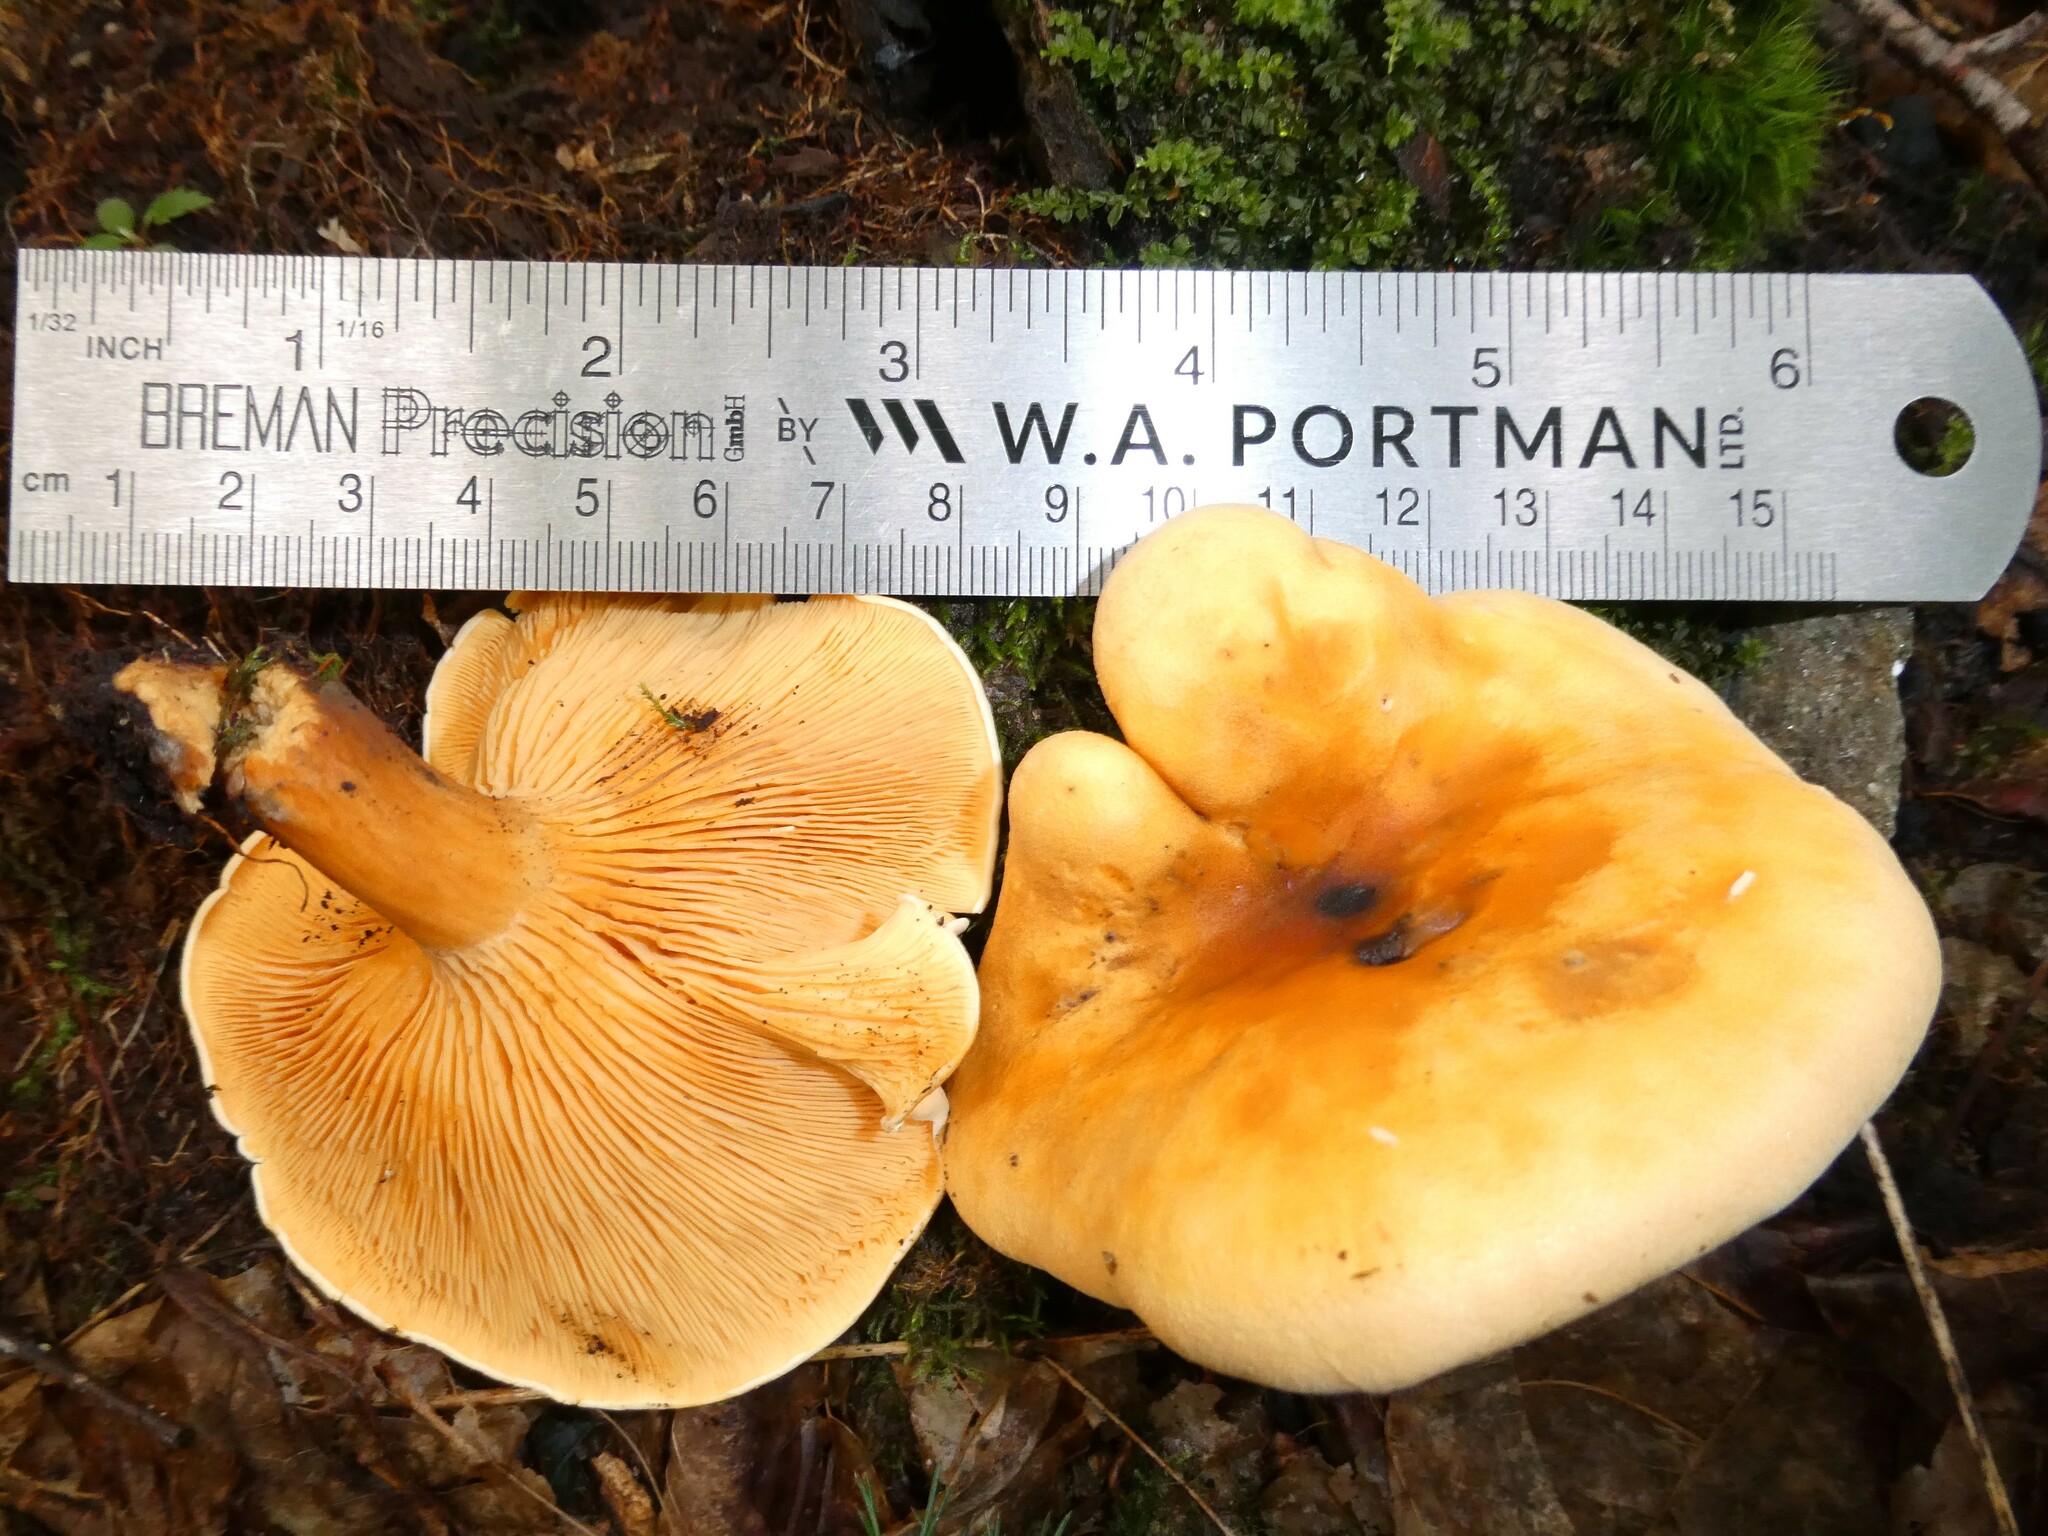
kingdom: Fungi
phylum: Basidiomycota
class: Agaricomycetes
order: Boletales
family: Hygrophoropsidaceae
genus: Hygrophoropsis
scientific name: Hygrophoropsis aurantiaca
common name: False chanterelle
